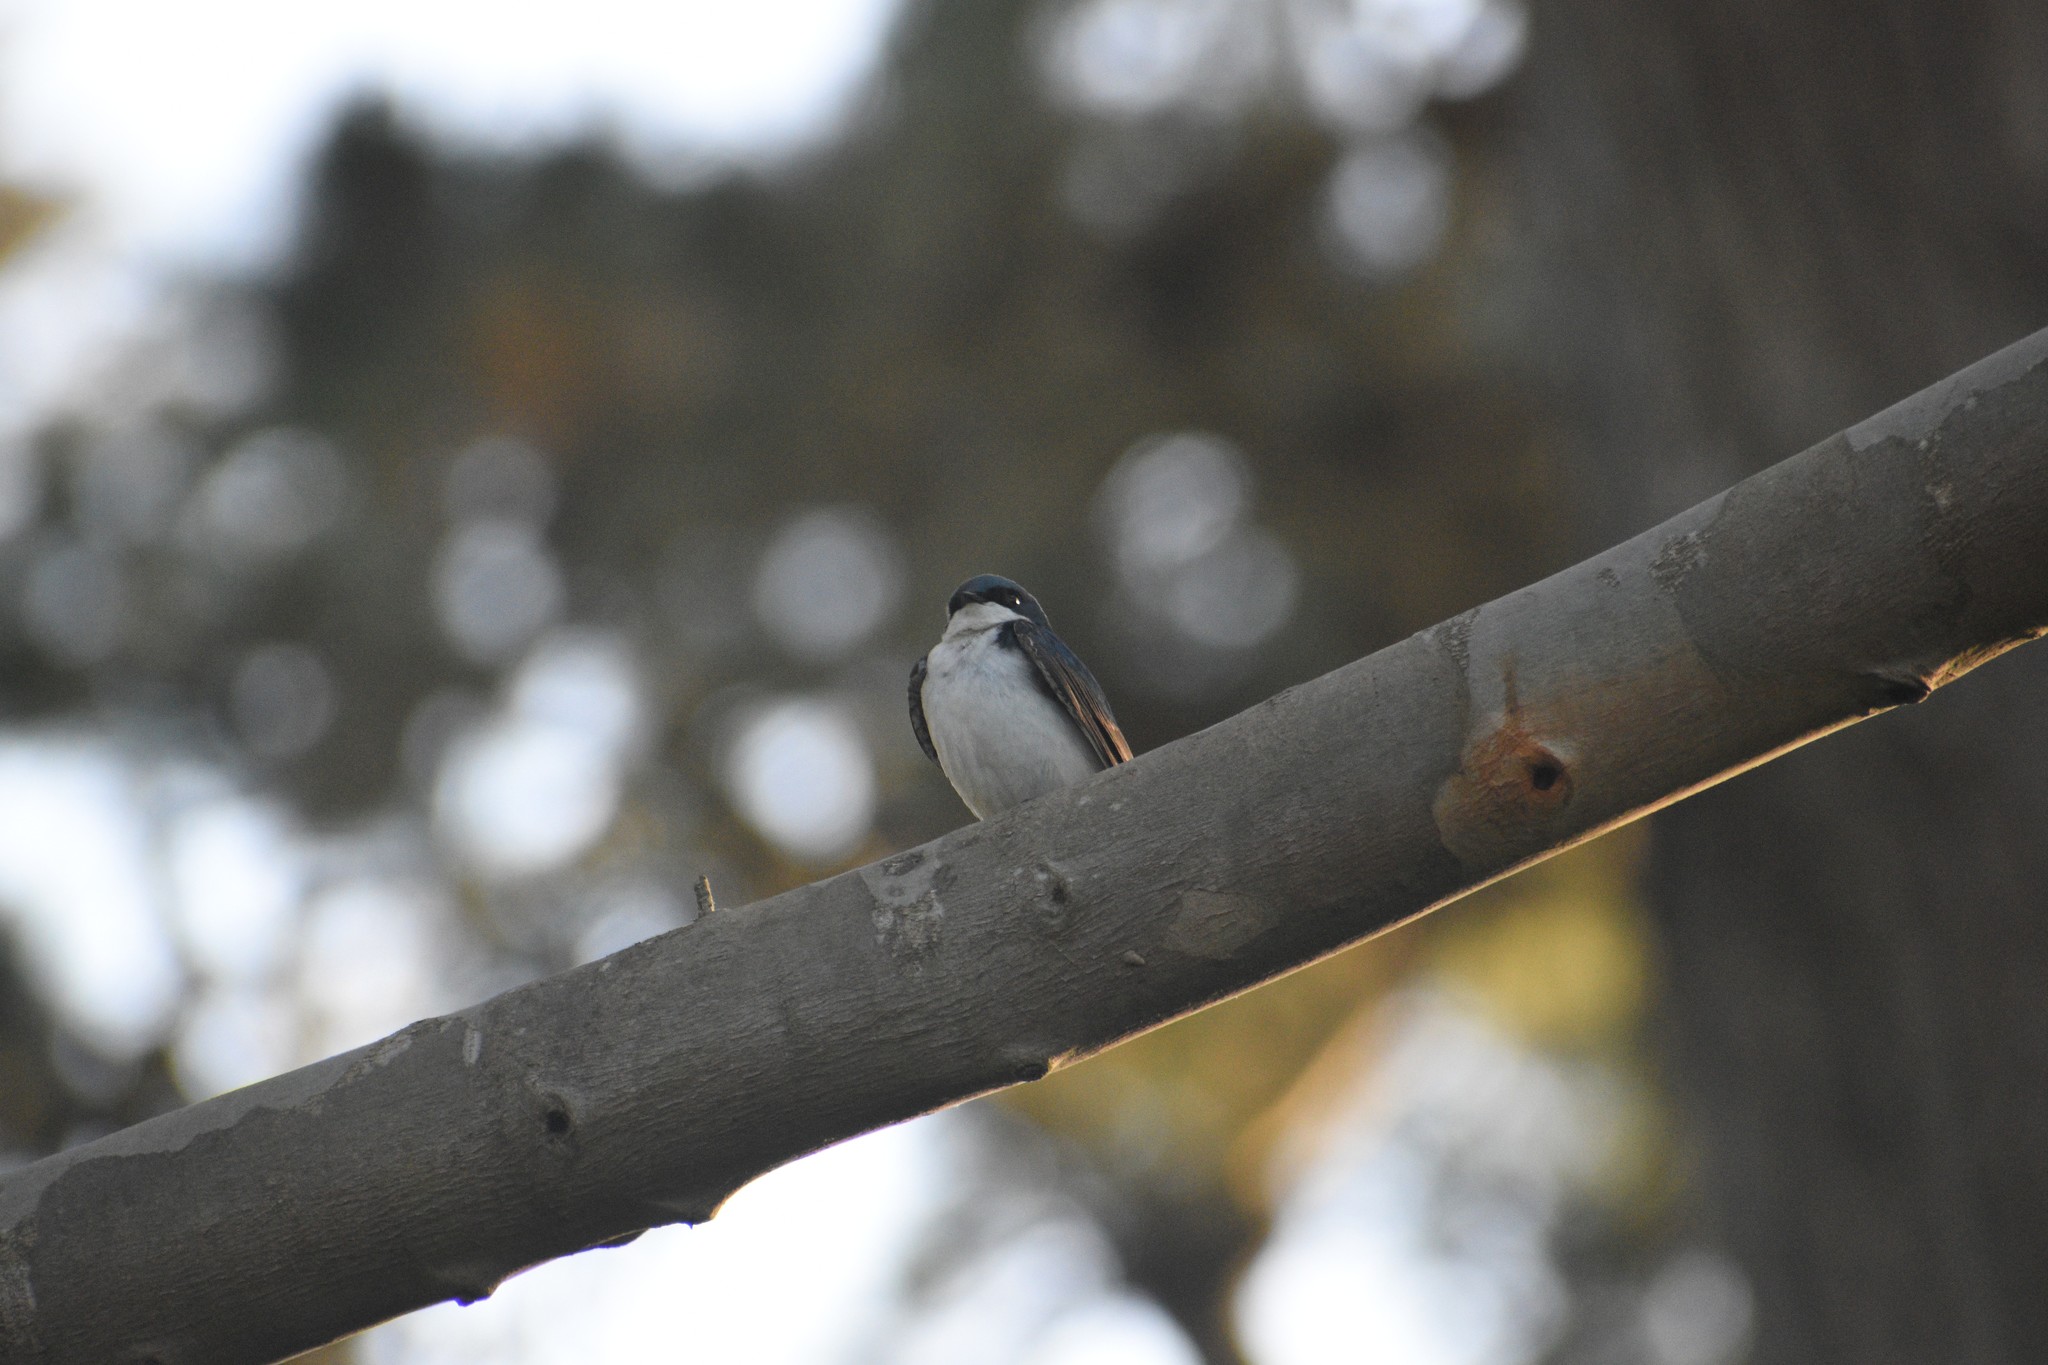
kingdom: Animalia
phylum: Chordata
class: Aves
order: Passeriformes
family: Hirundinidae
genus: Tachycineta
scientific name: Tachycineta bicolor
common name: Tree swallow
